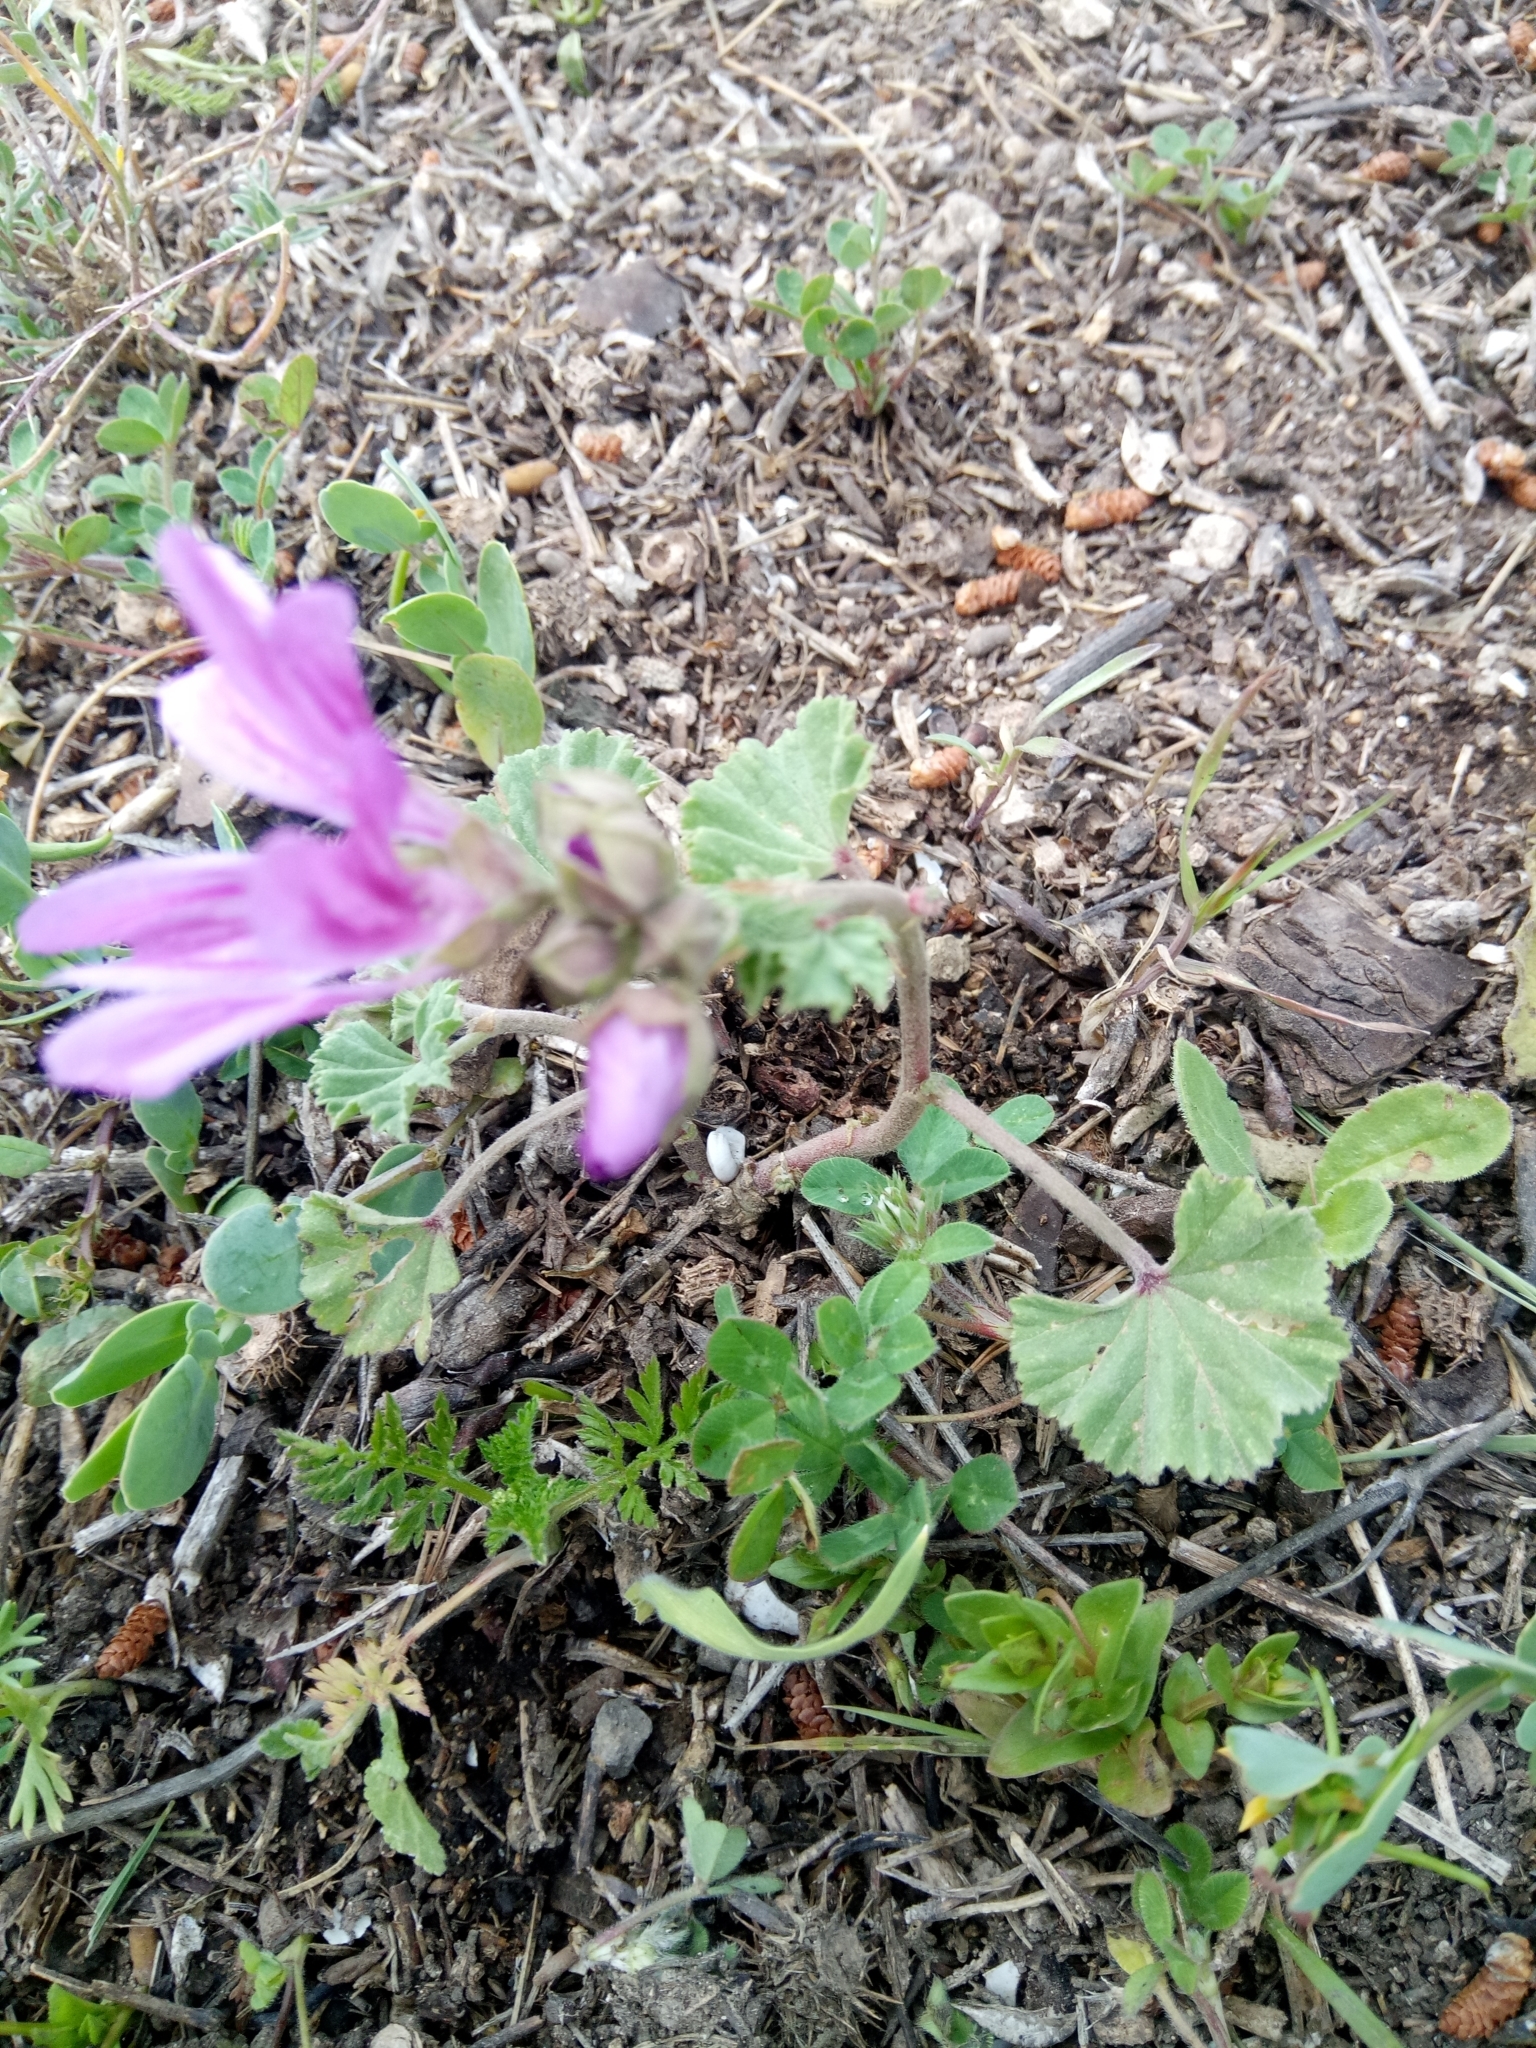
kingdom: Plantae
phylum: Tracheophyta
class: Magnoliopsida
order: Malvales
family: Malvaceae
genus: Malva
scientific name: Malva sylvestris
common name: Common mallow
